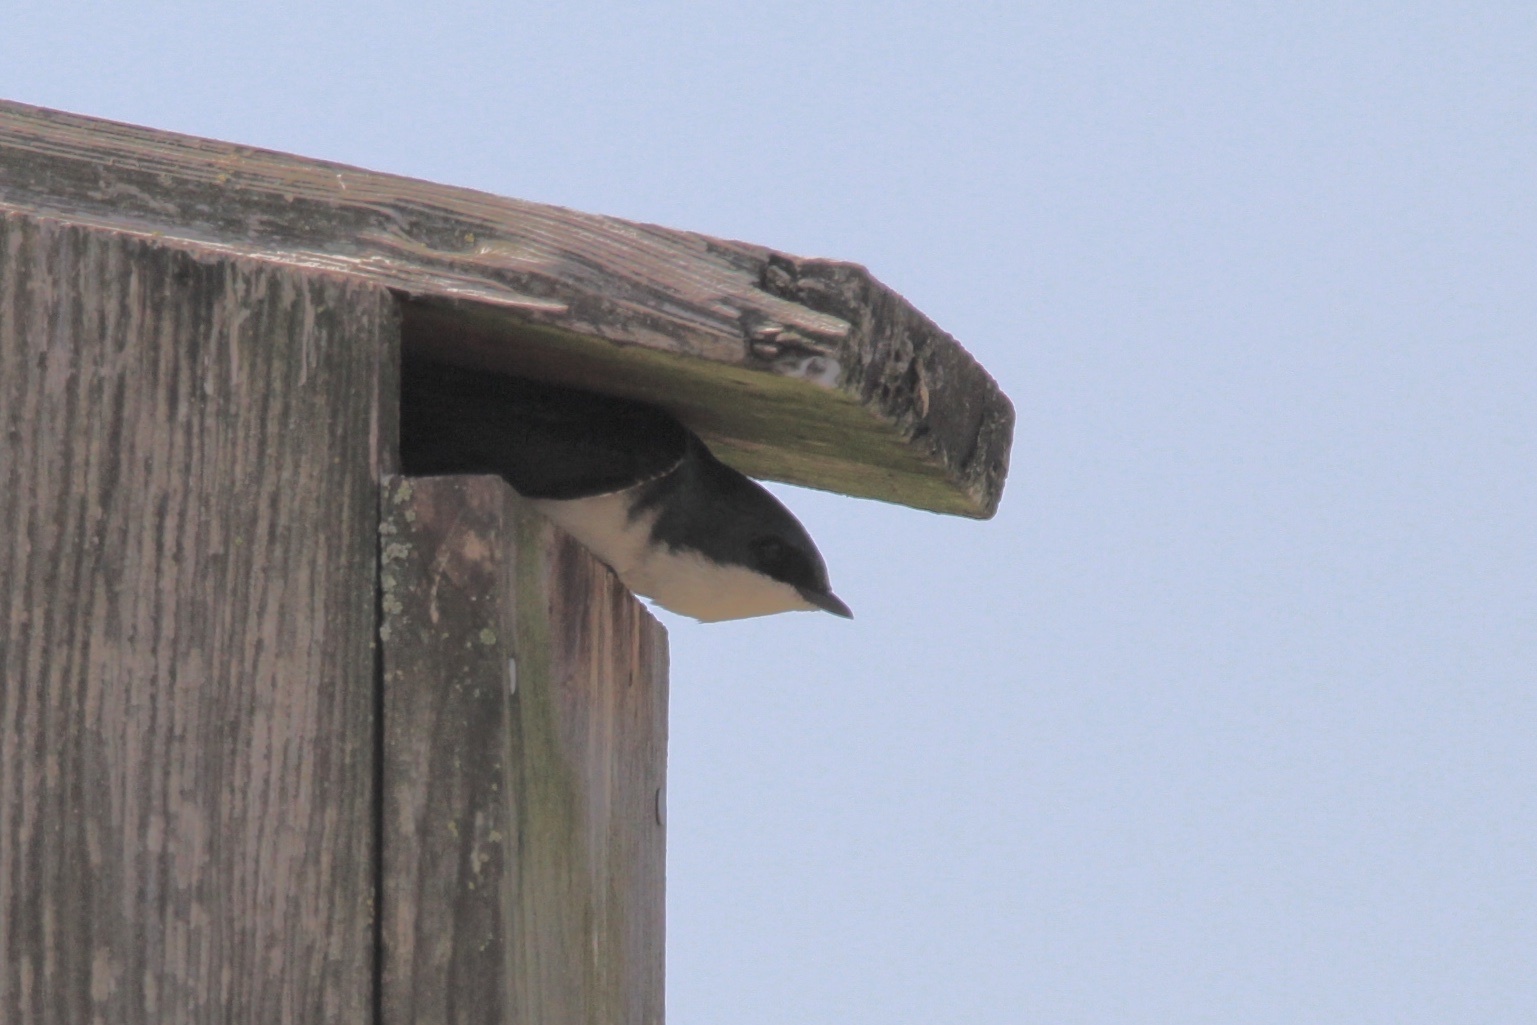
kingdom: Animalia
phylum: Chordata
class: Aves
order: Passeriformes
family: Hirundinidae
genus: Tachycineta
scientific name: Tachycineta bicolor
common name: Tree swallow
